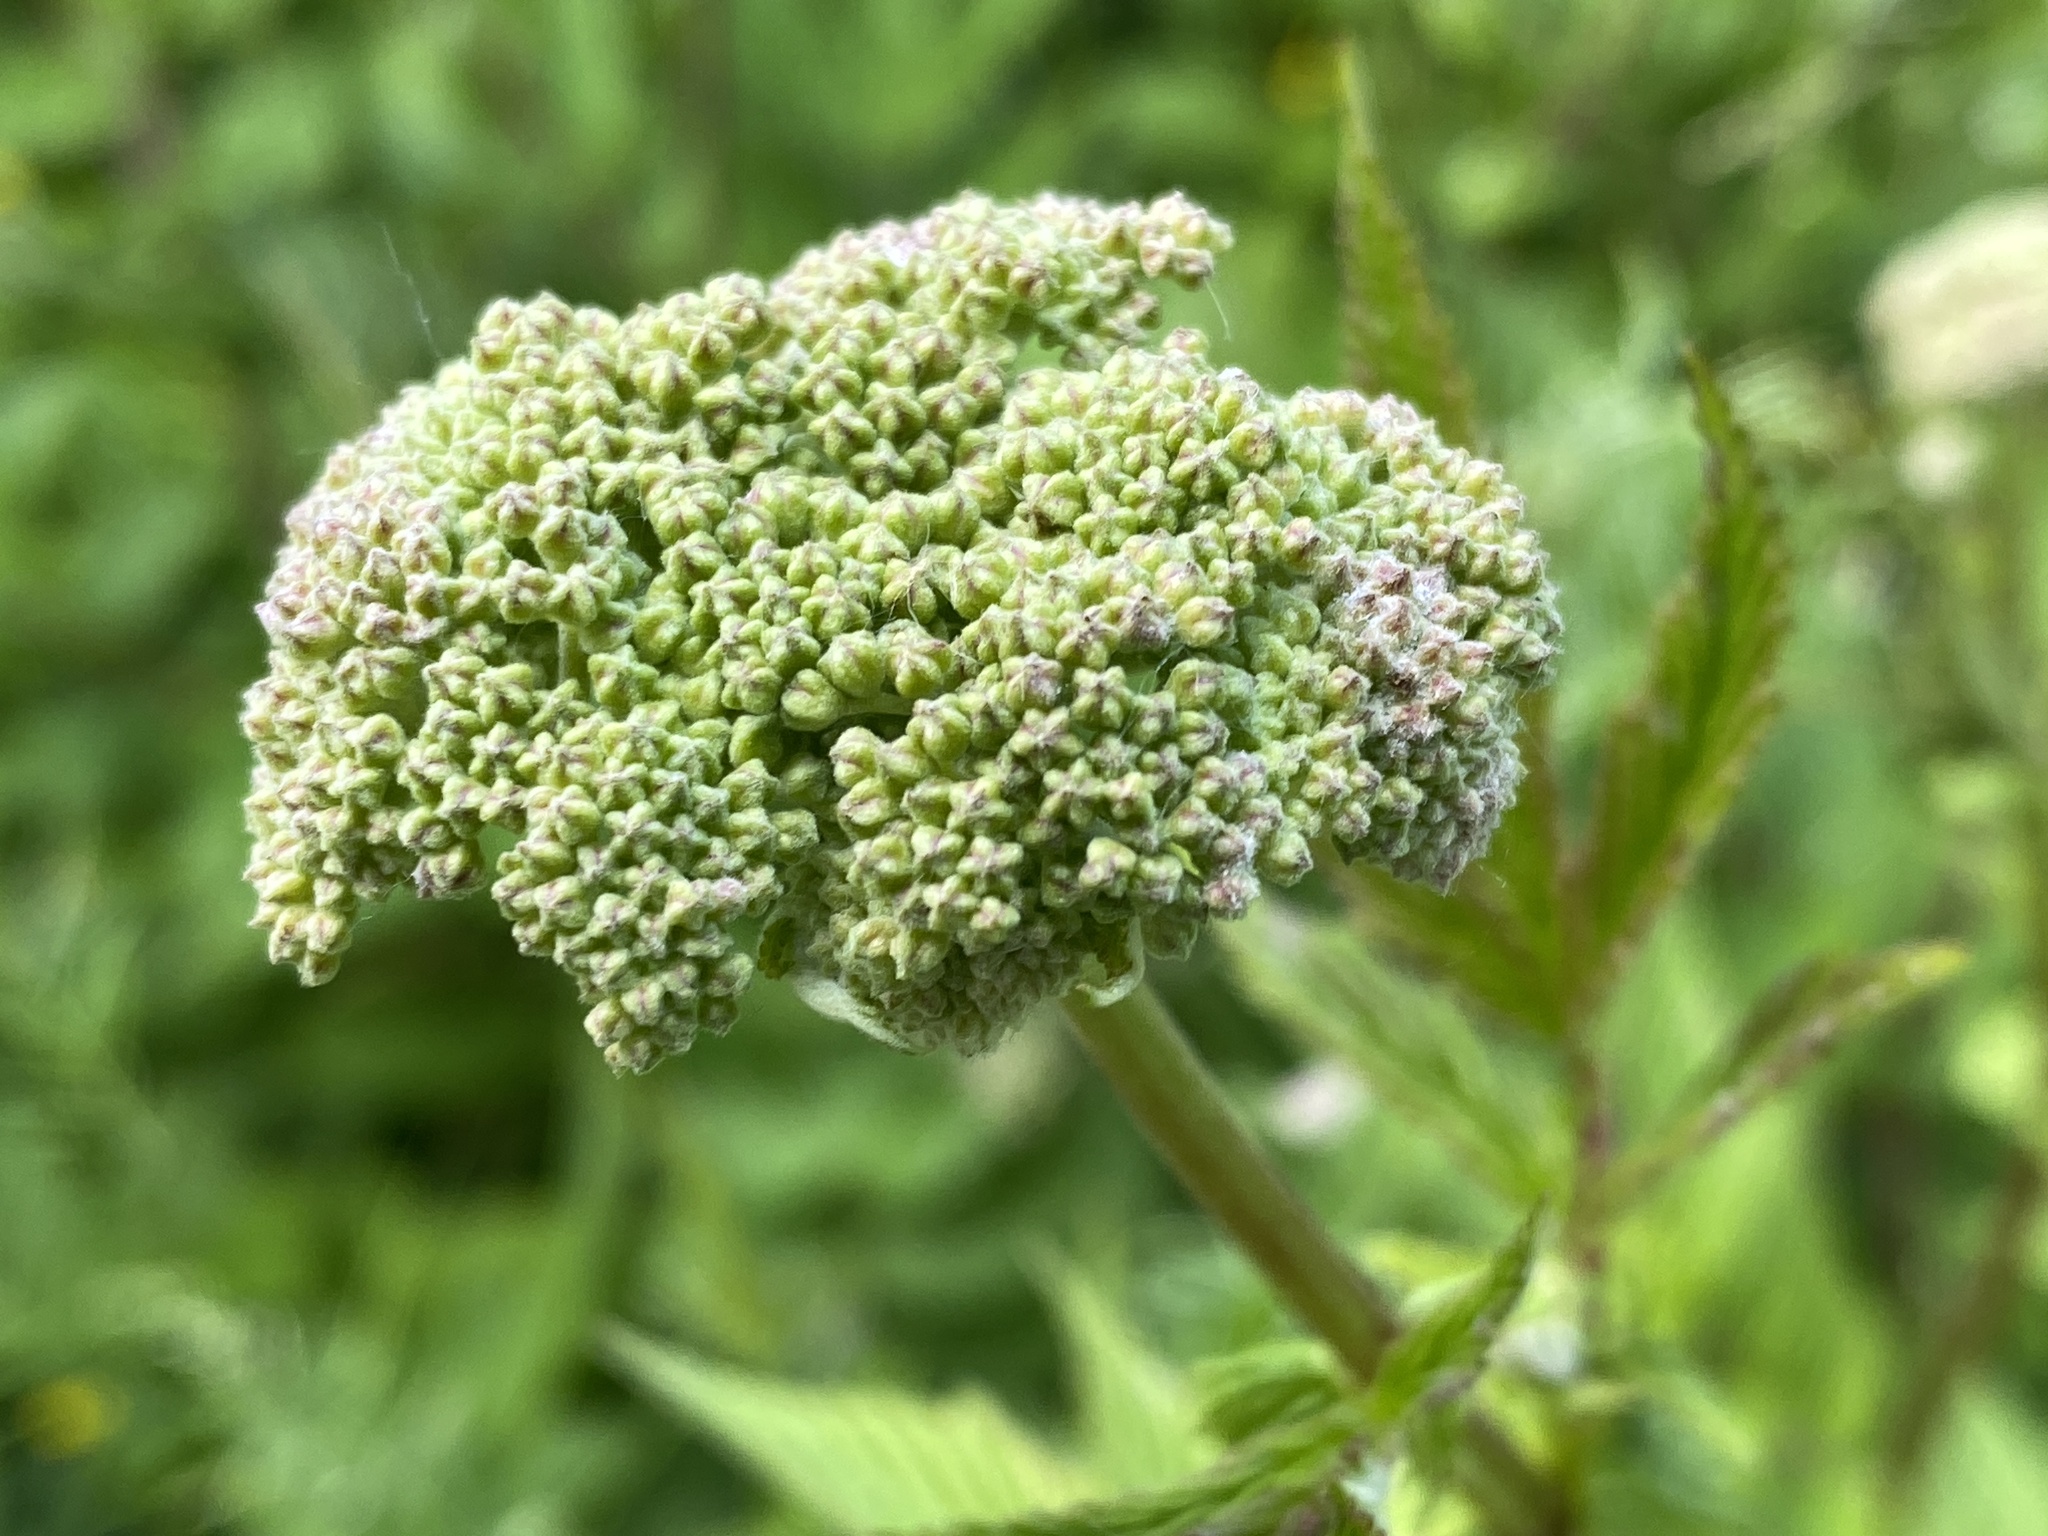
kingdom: Plantae
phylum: Tracheophyta
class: Magnoliopsida
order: Rosales
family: Rosaceae
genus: Filipendula
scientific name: Filipendula ulmaria
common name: Meadowsweet
